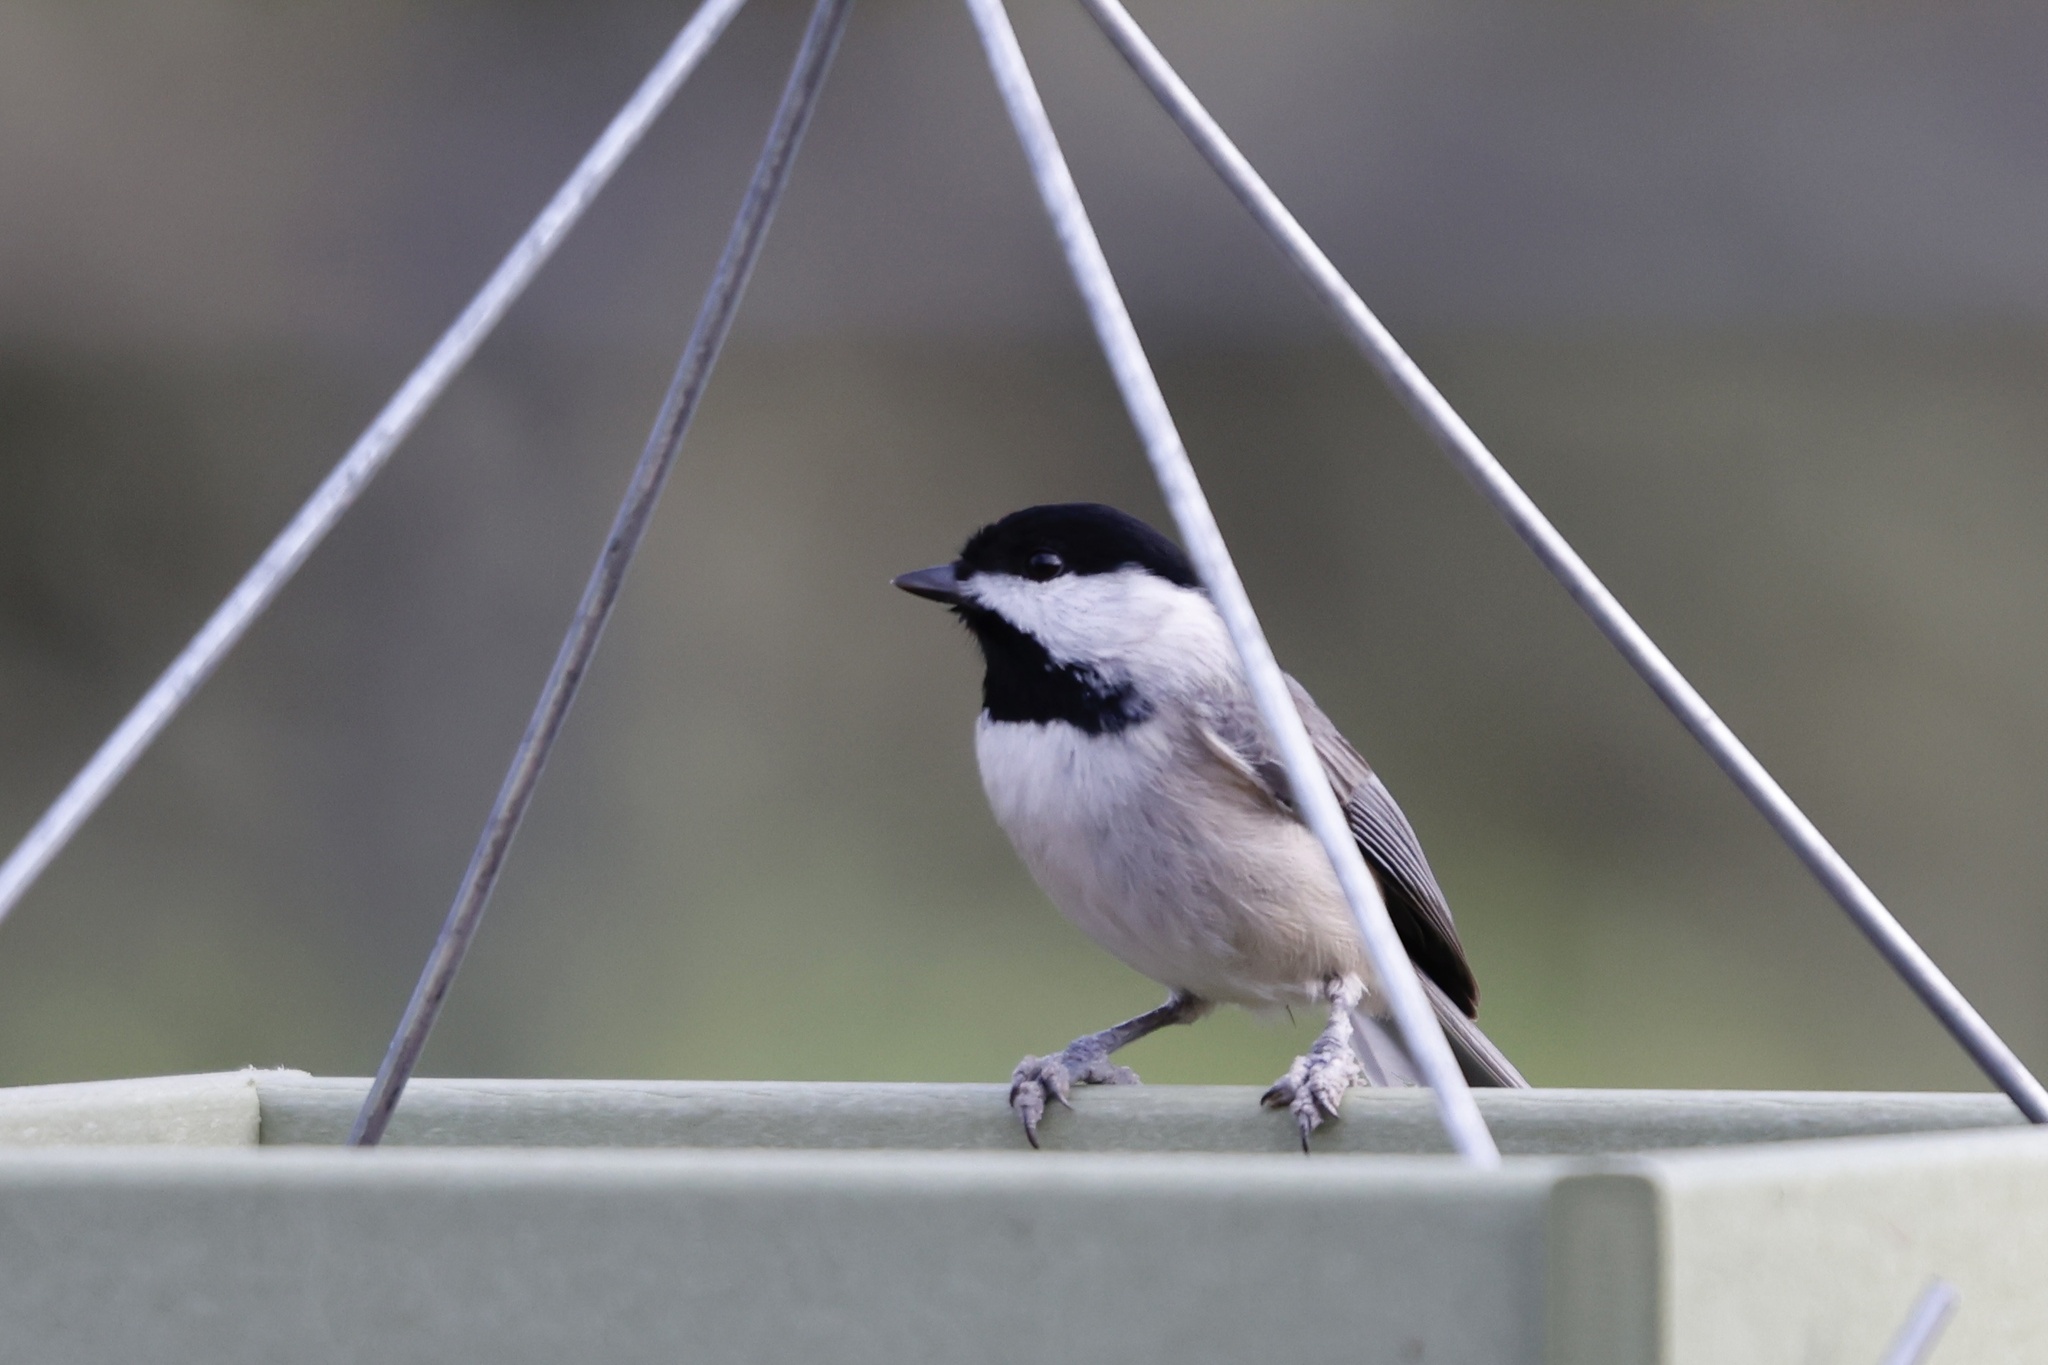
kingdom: Animalia
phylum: Chordata
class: Aves
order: Passeriformes
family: Paridae
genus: Poecile
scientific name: Poecile carolinensis
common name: Carolina chickadee
